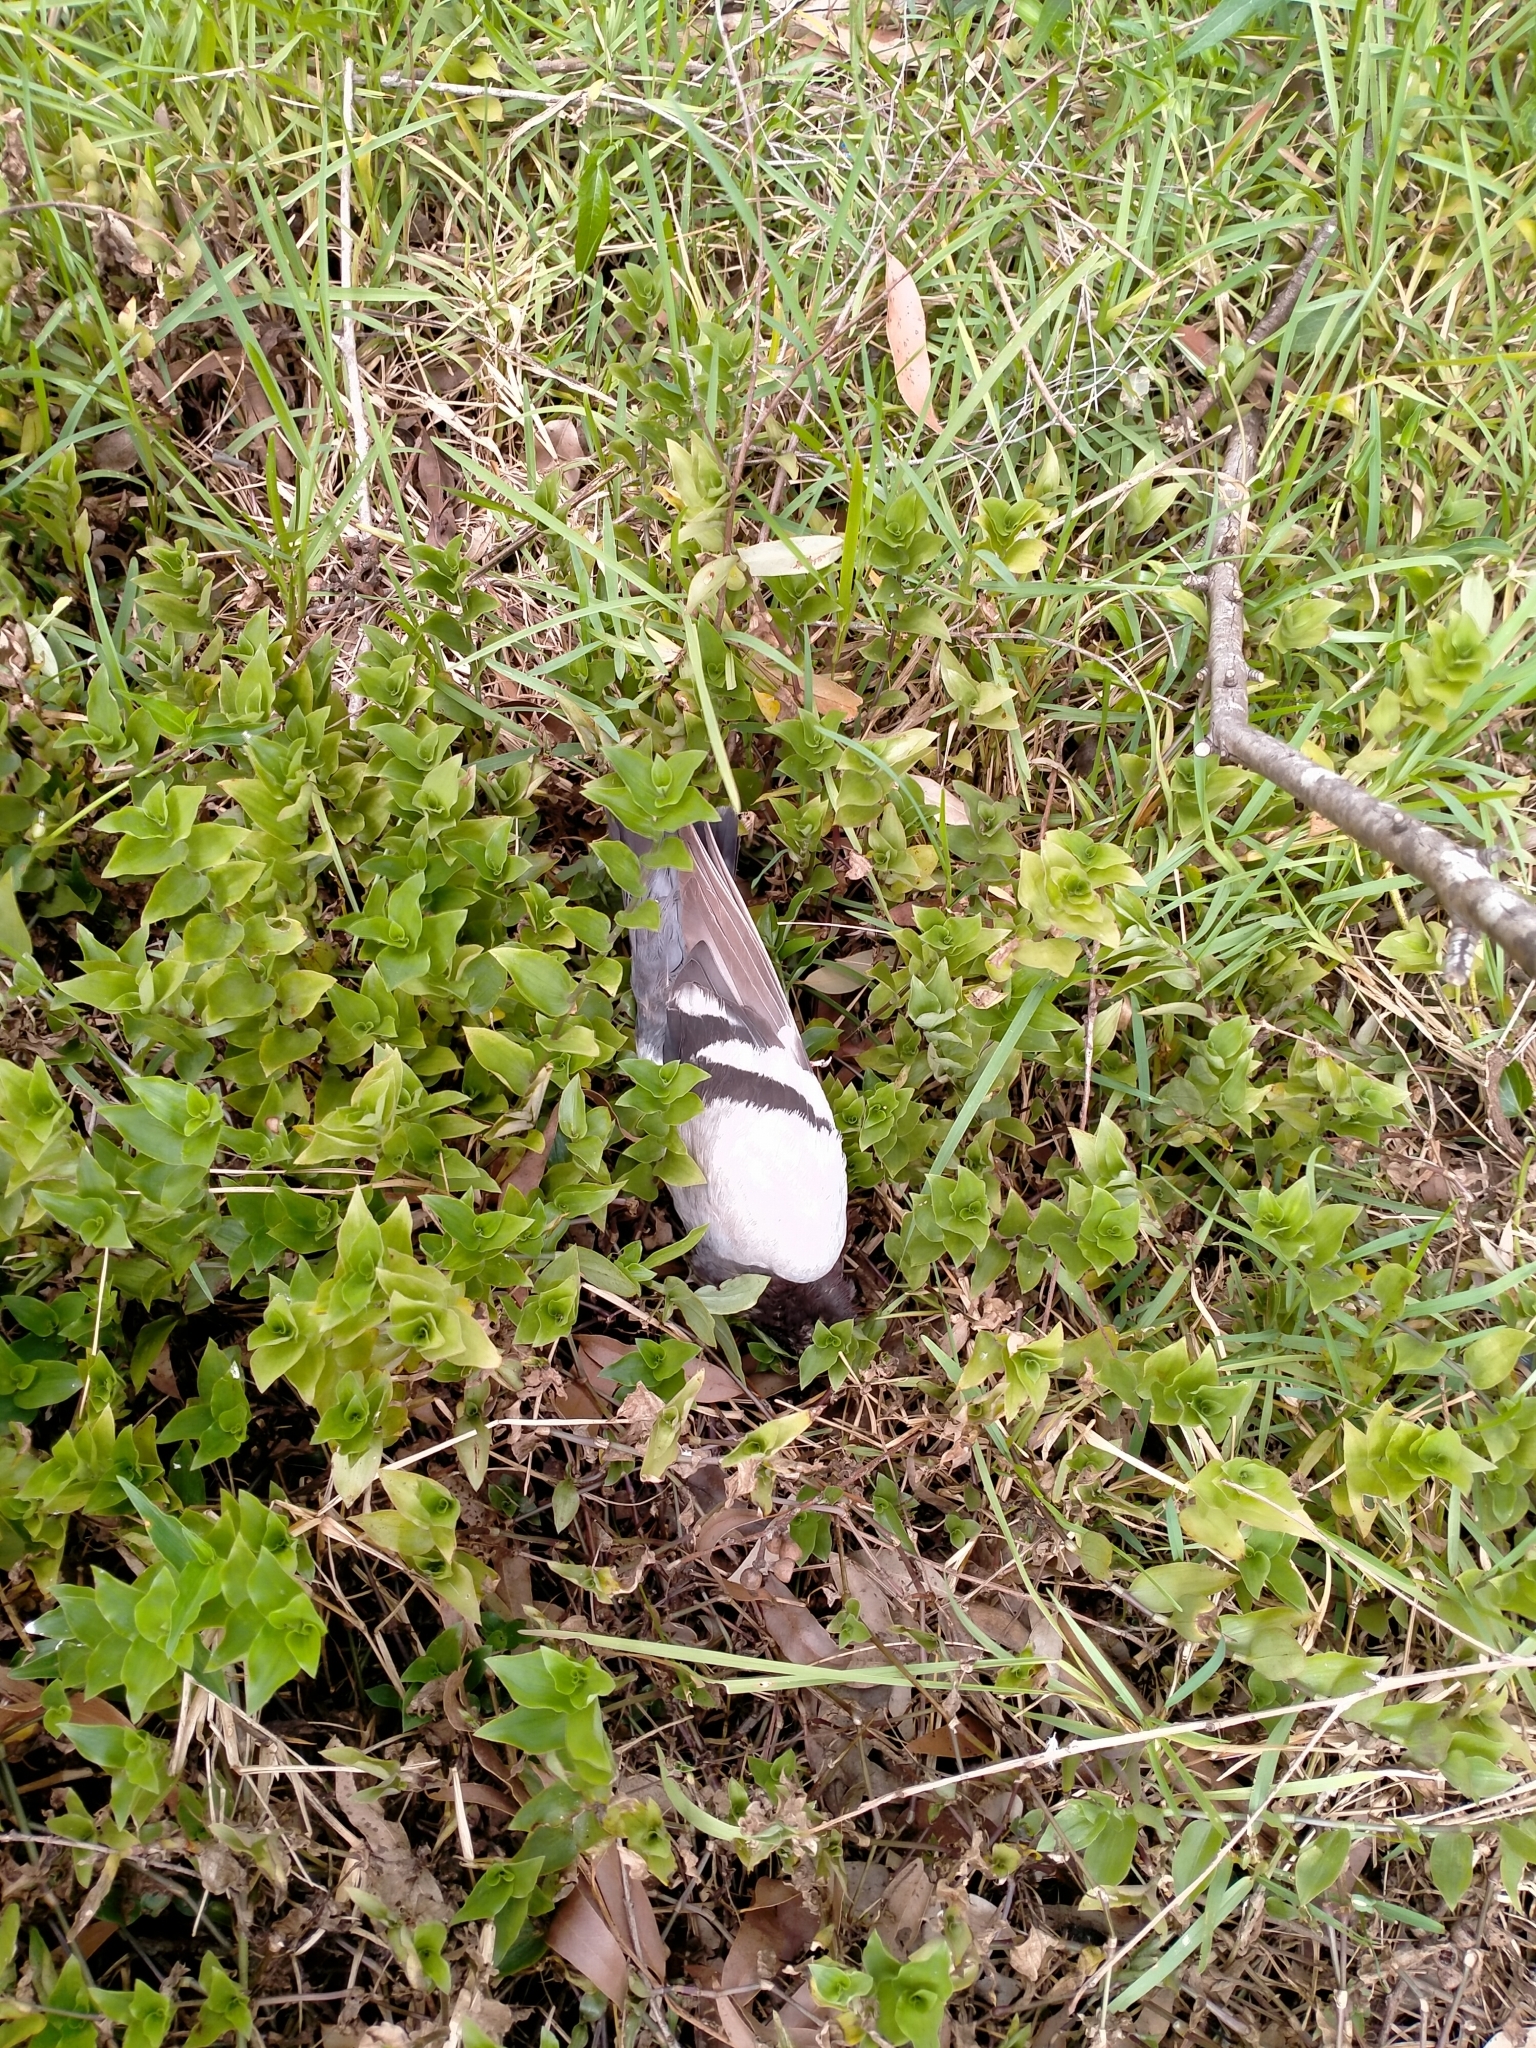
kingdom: Animalia
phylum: Chordata
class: Aves
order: Columbiformes
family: Columbidae
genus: Columba
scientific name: Columba livia
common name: Rock pigeon
